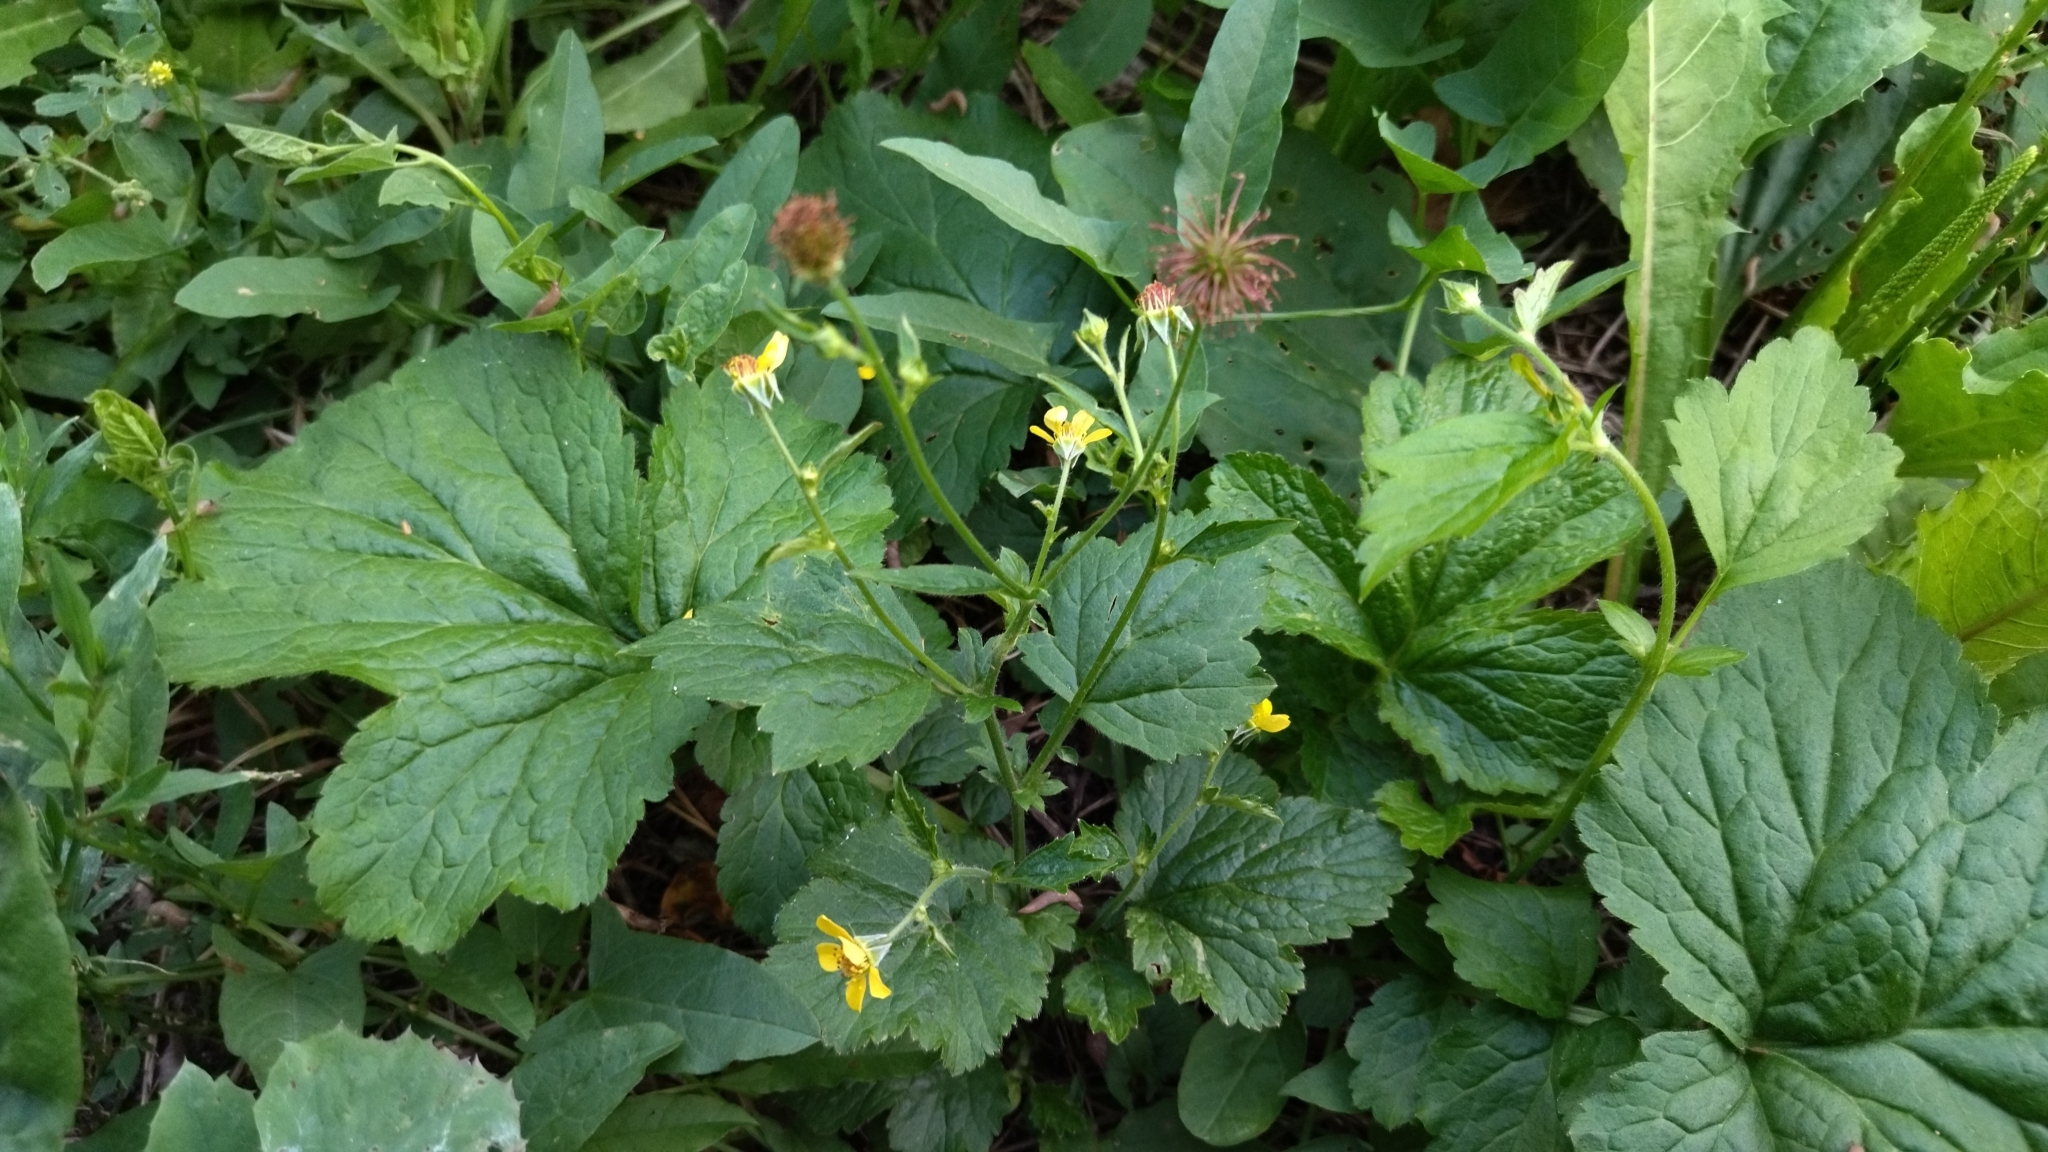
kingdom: Plantae
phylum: Tracheophyta
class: Magnoliopsida
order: Rosales
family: Rosaceae
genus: Geum
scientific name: Geum urbanum
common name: Wood avens
